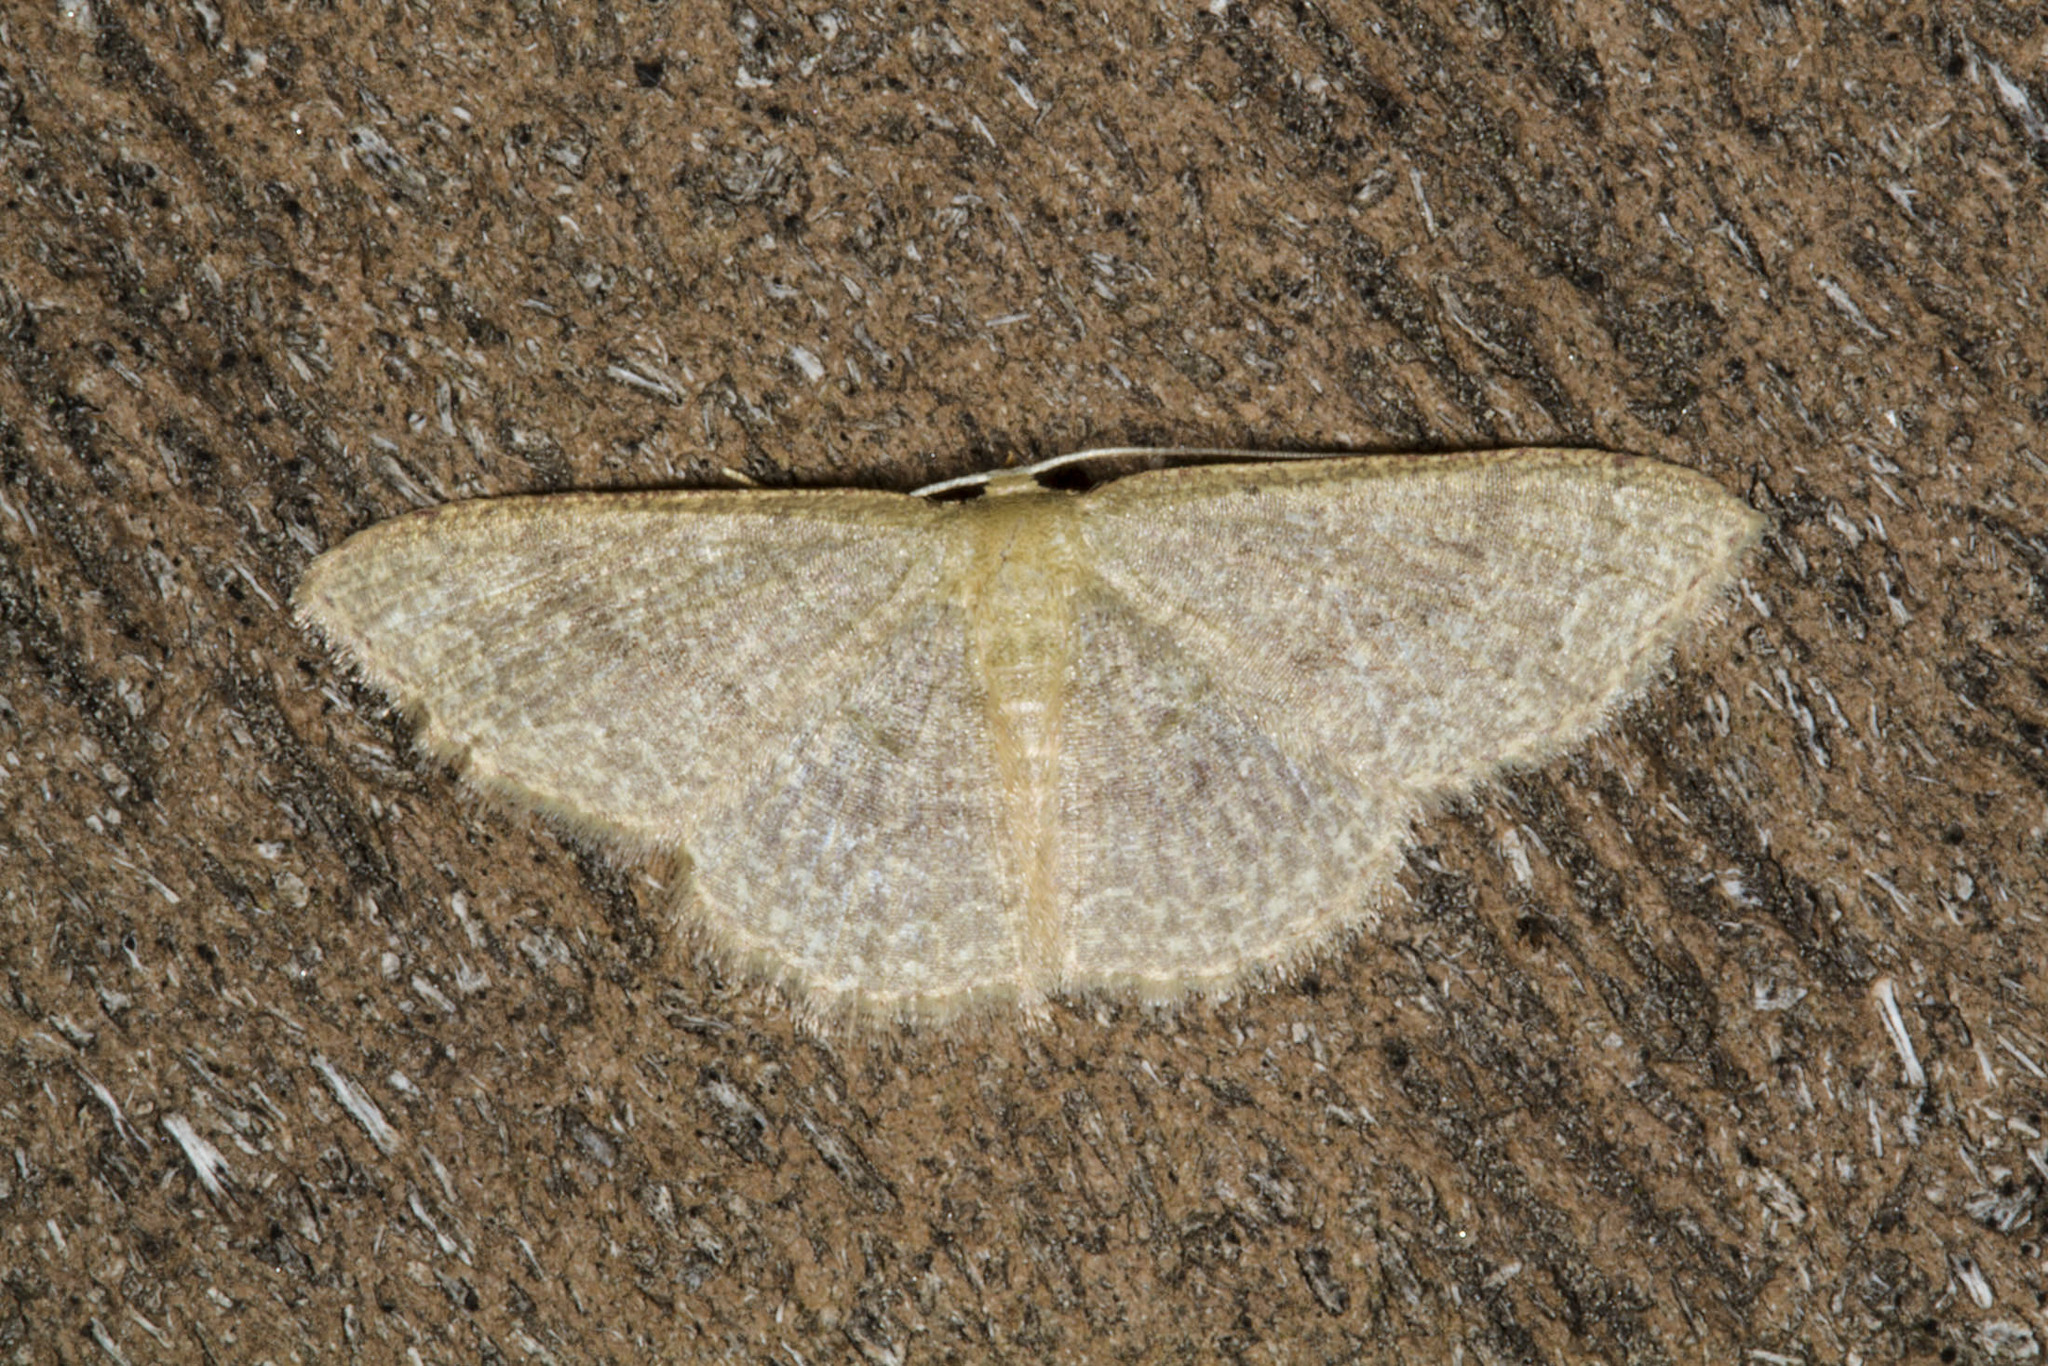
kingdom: Animalia
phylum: Arthropoda
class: Insecta
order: Lepidoptera
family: Geometridae
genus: Pleuroprucha
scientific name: Pleuroprucha insulsaria
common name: Common tan wave
